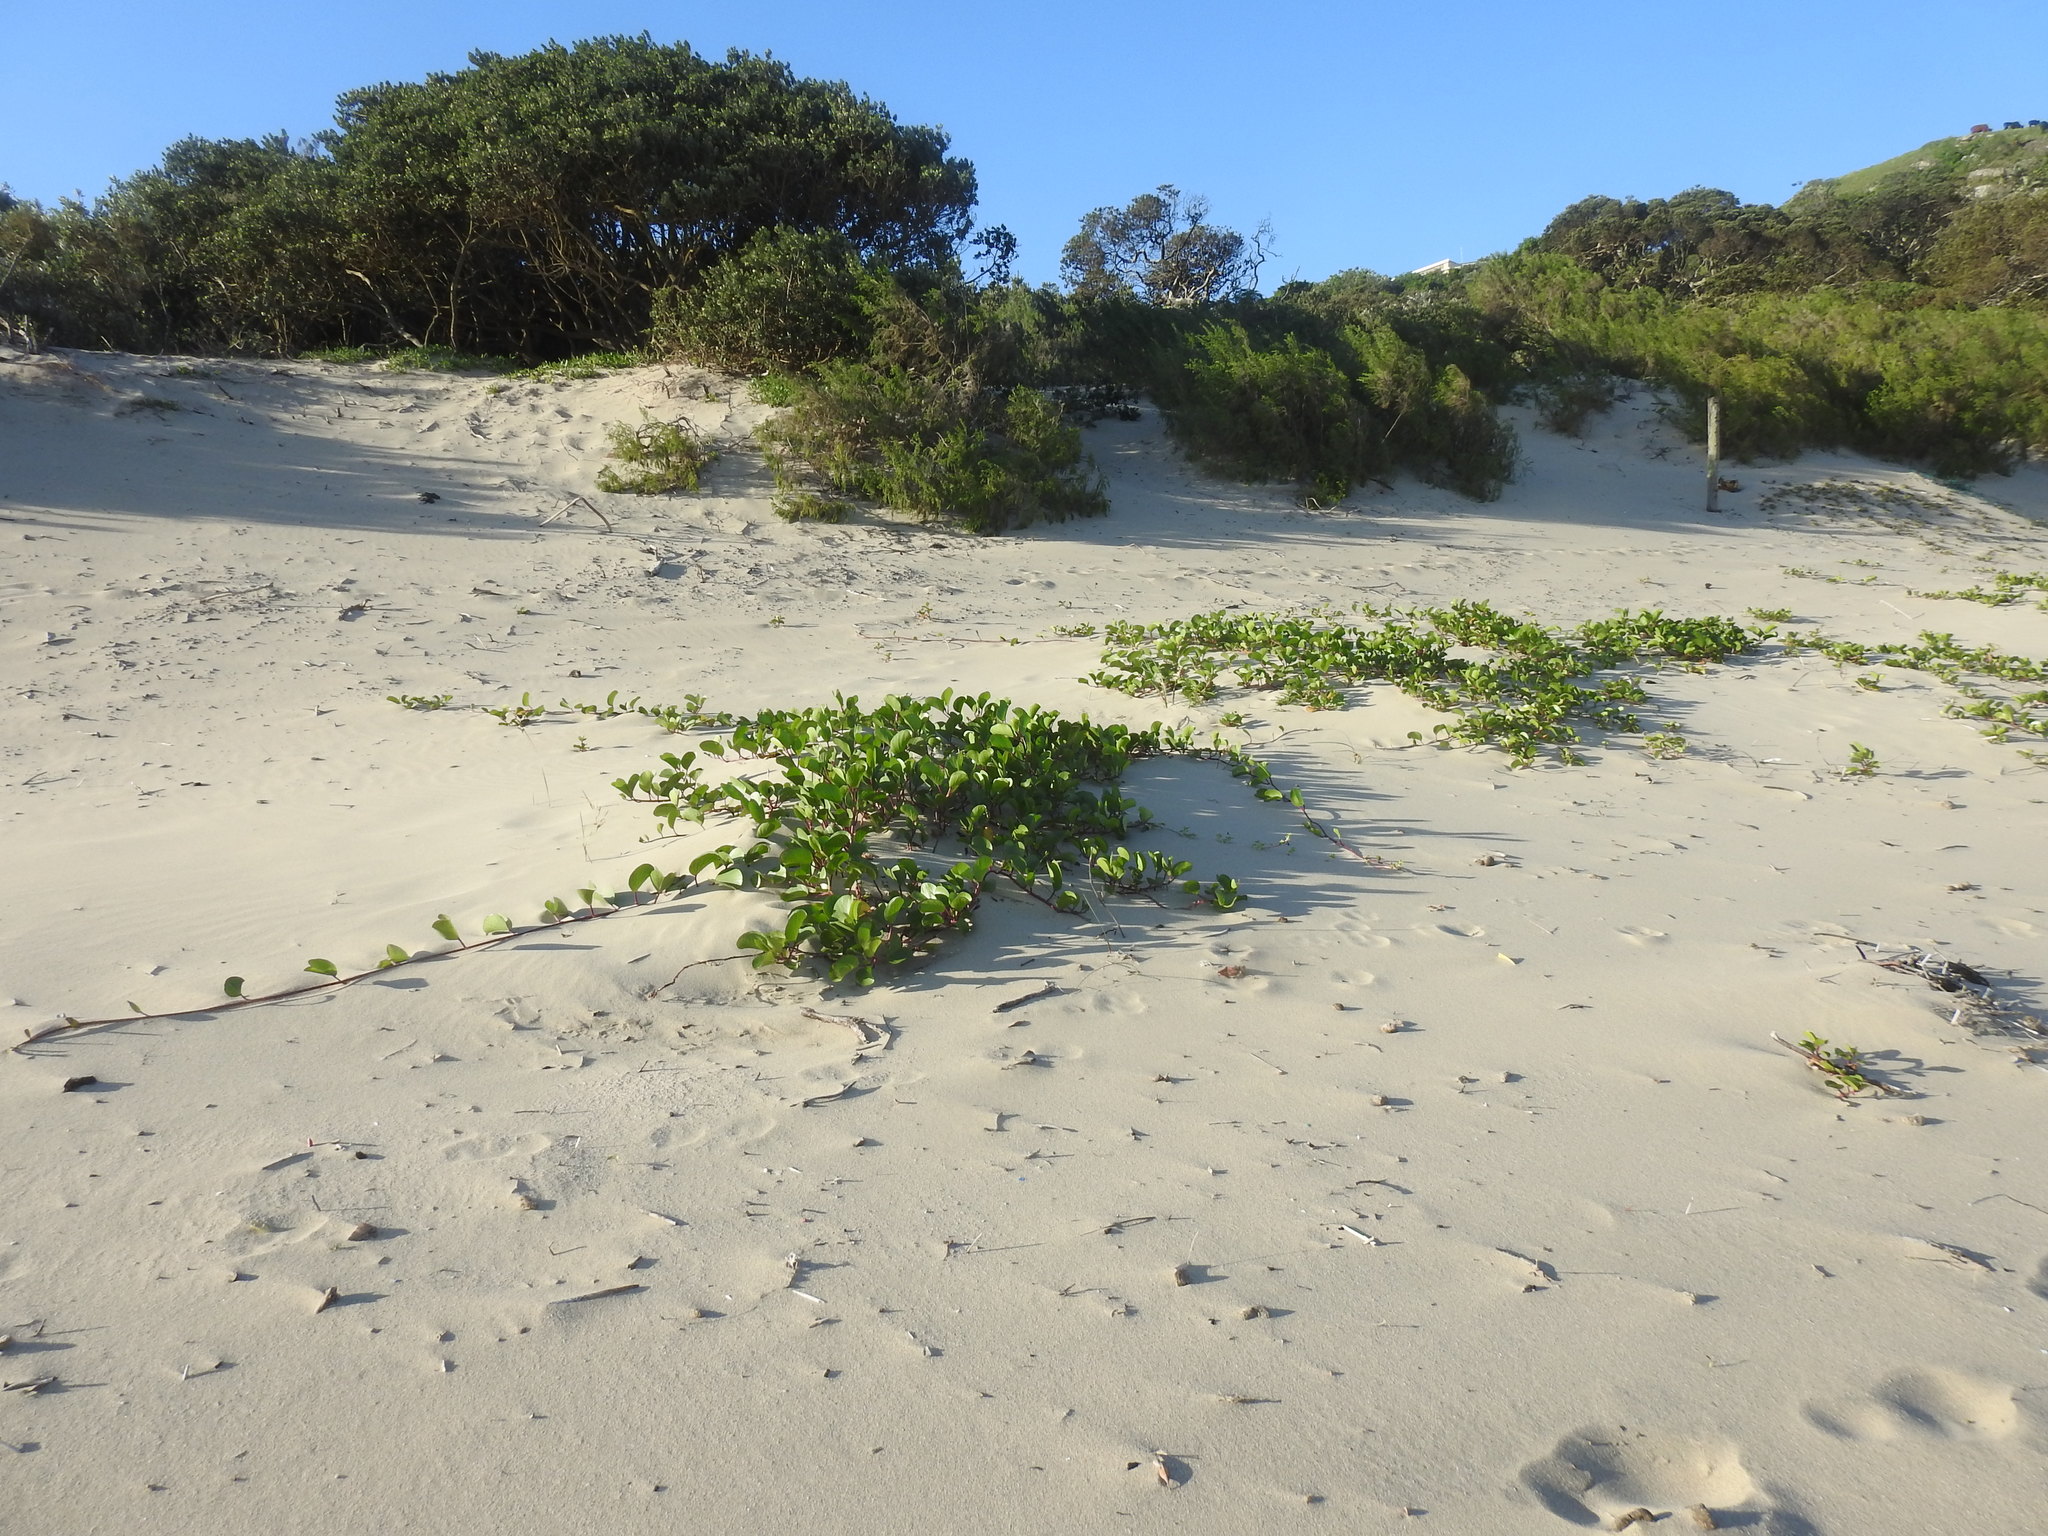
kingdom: Plantae
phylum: Tracheophyta
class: Magnoliopsida
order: Solanales
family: Convolvulaceae
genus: Ipomoea
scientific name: Ipomoea pes-caprae
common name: Beach morning glory
